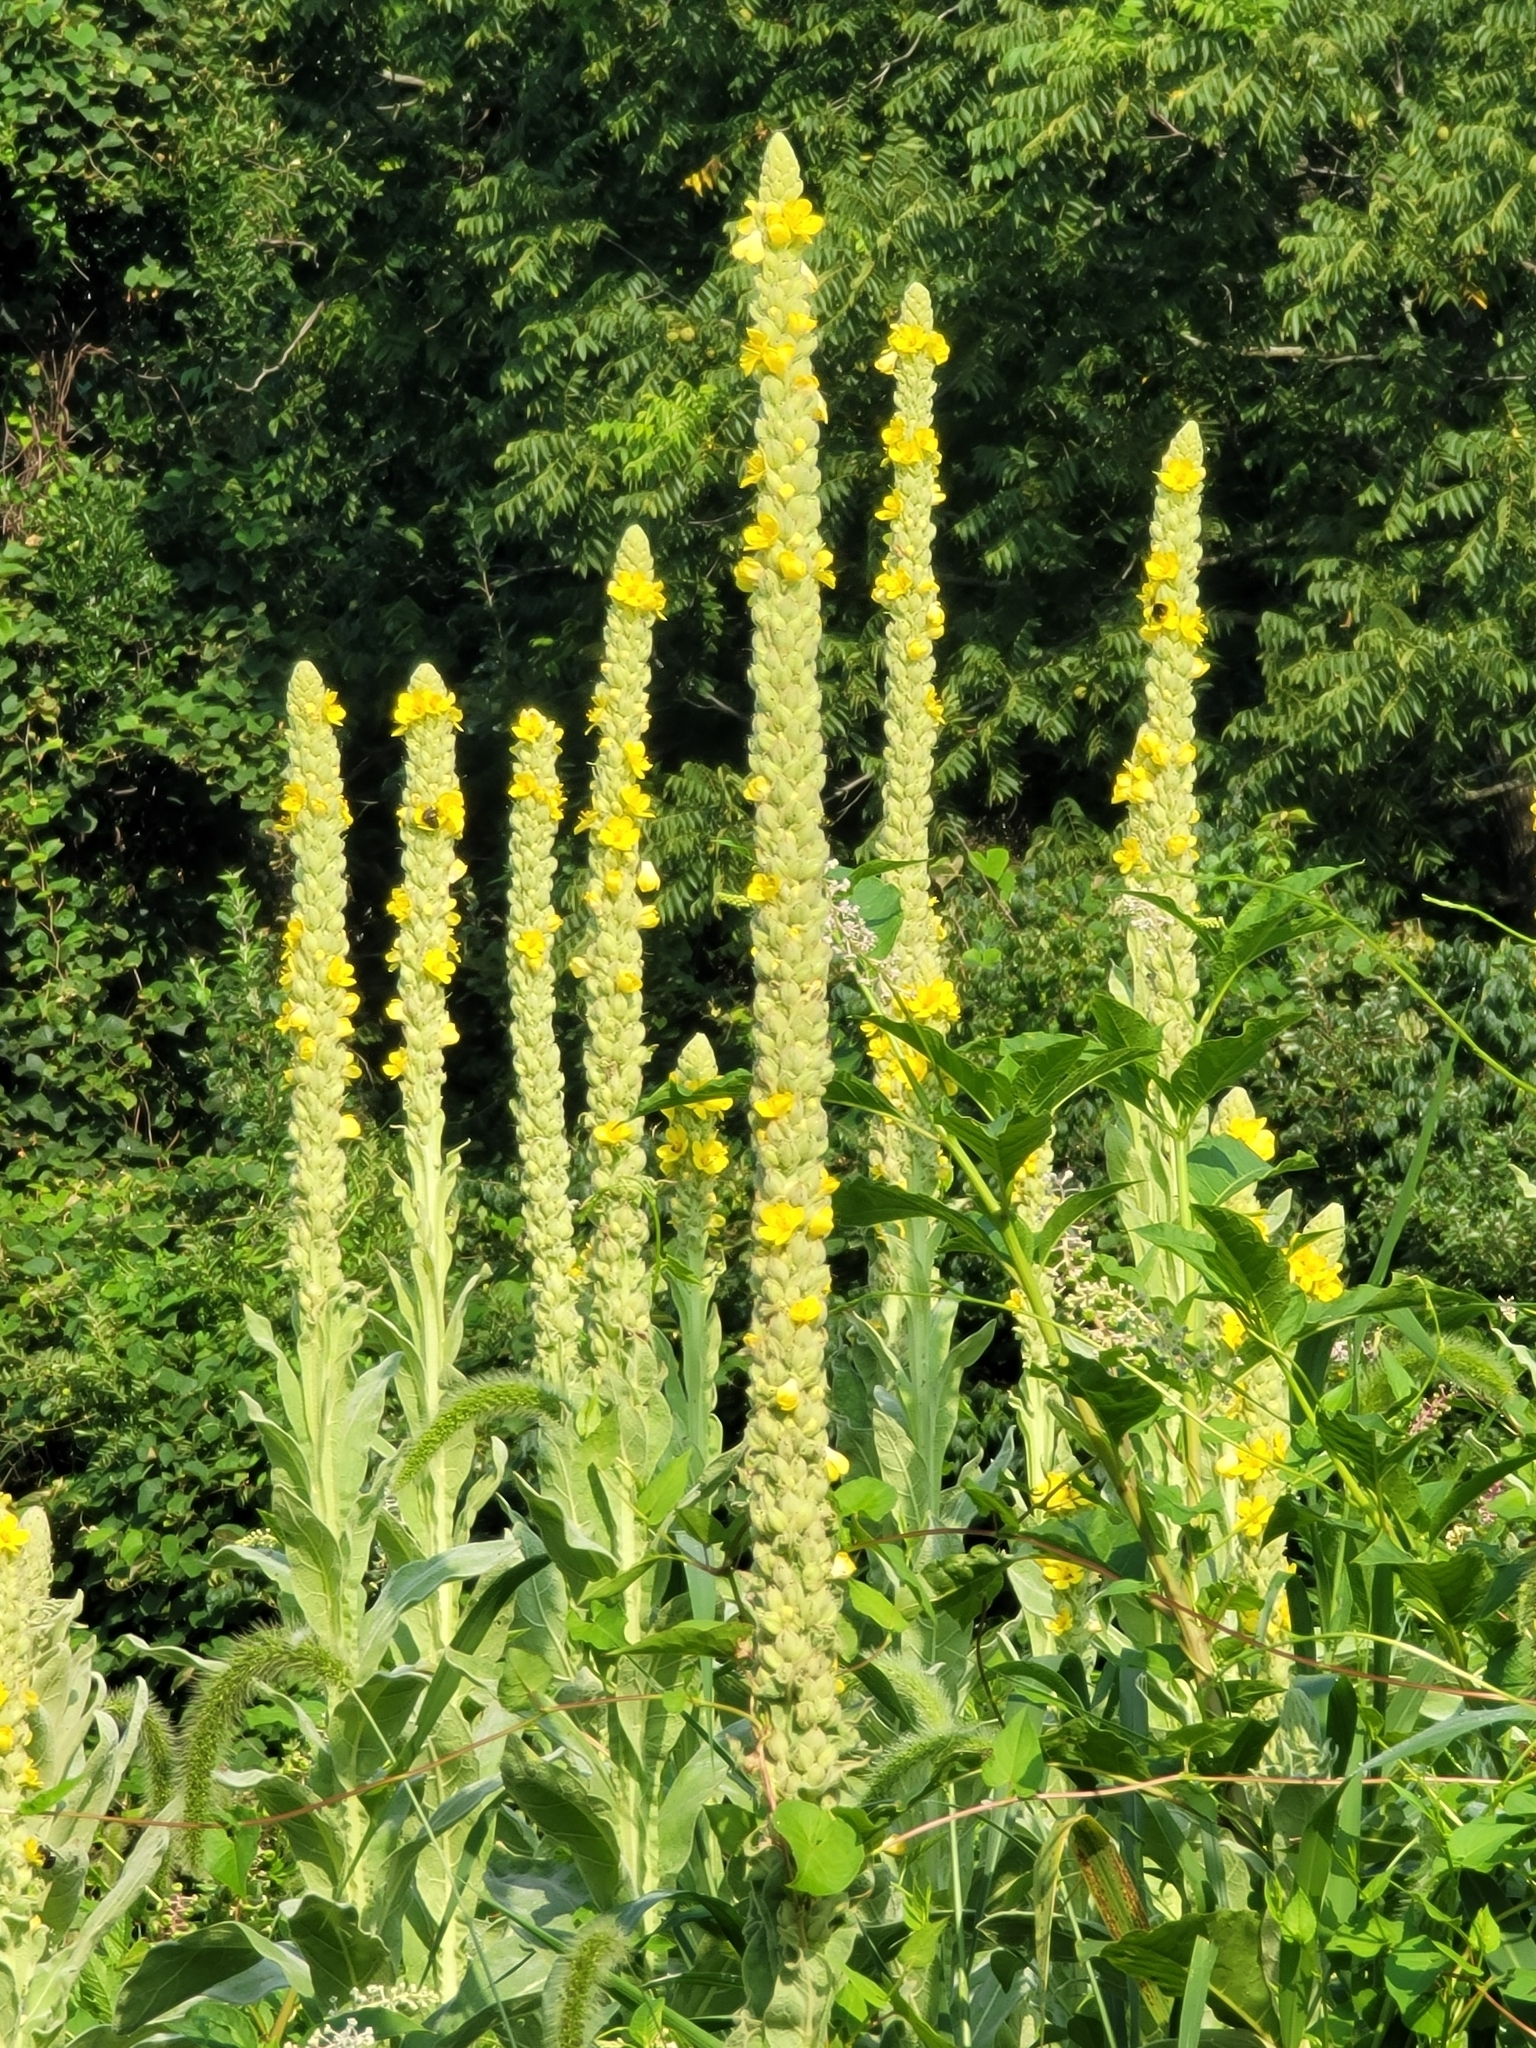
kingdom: Plantae
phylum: Tracheophyta
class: Magnoliopsida
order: Lamiales
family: Scrophulariaceae
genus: Verbascum
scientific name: Verbascum thapsus
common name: Common mullein
